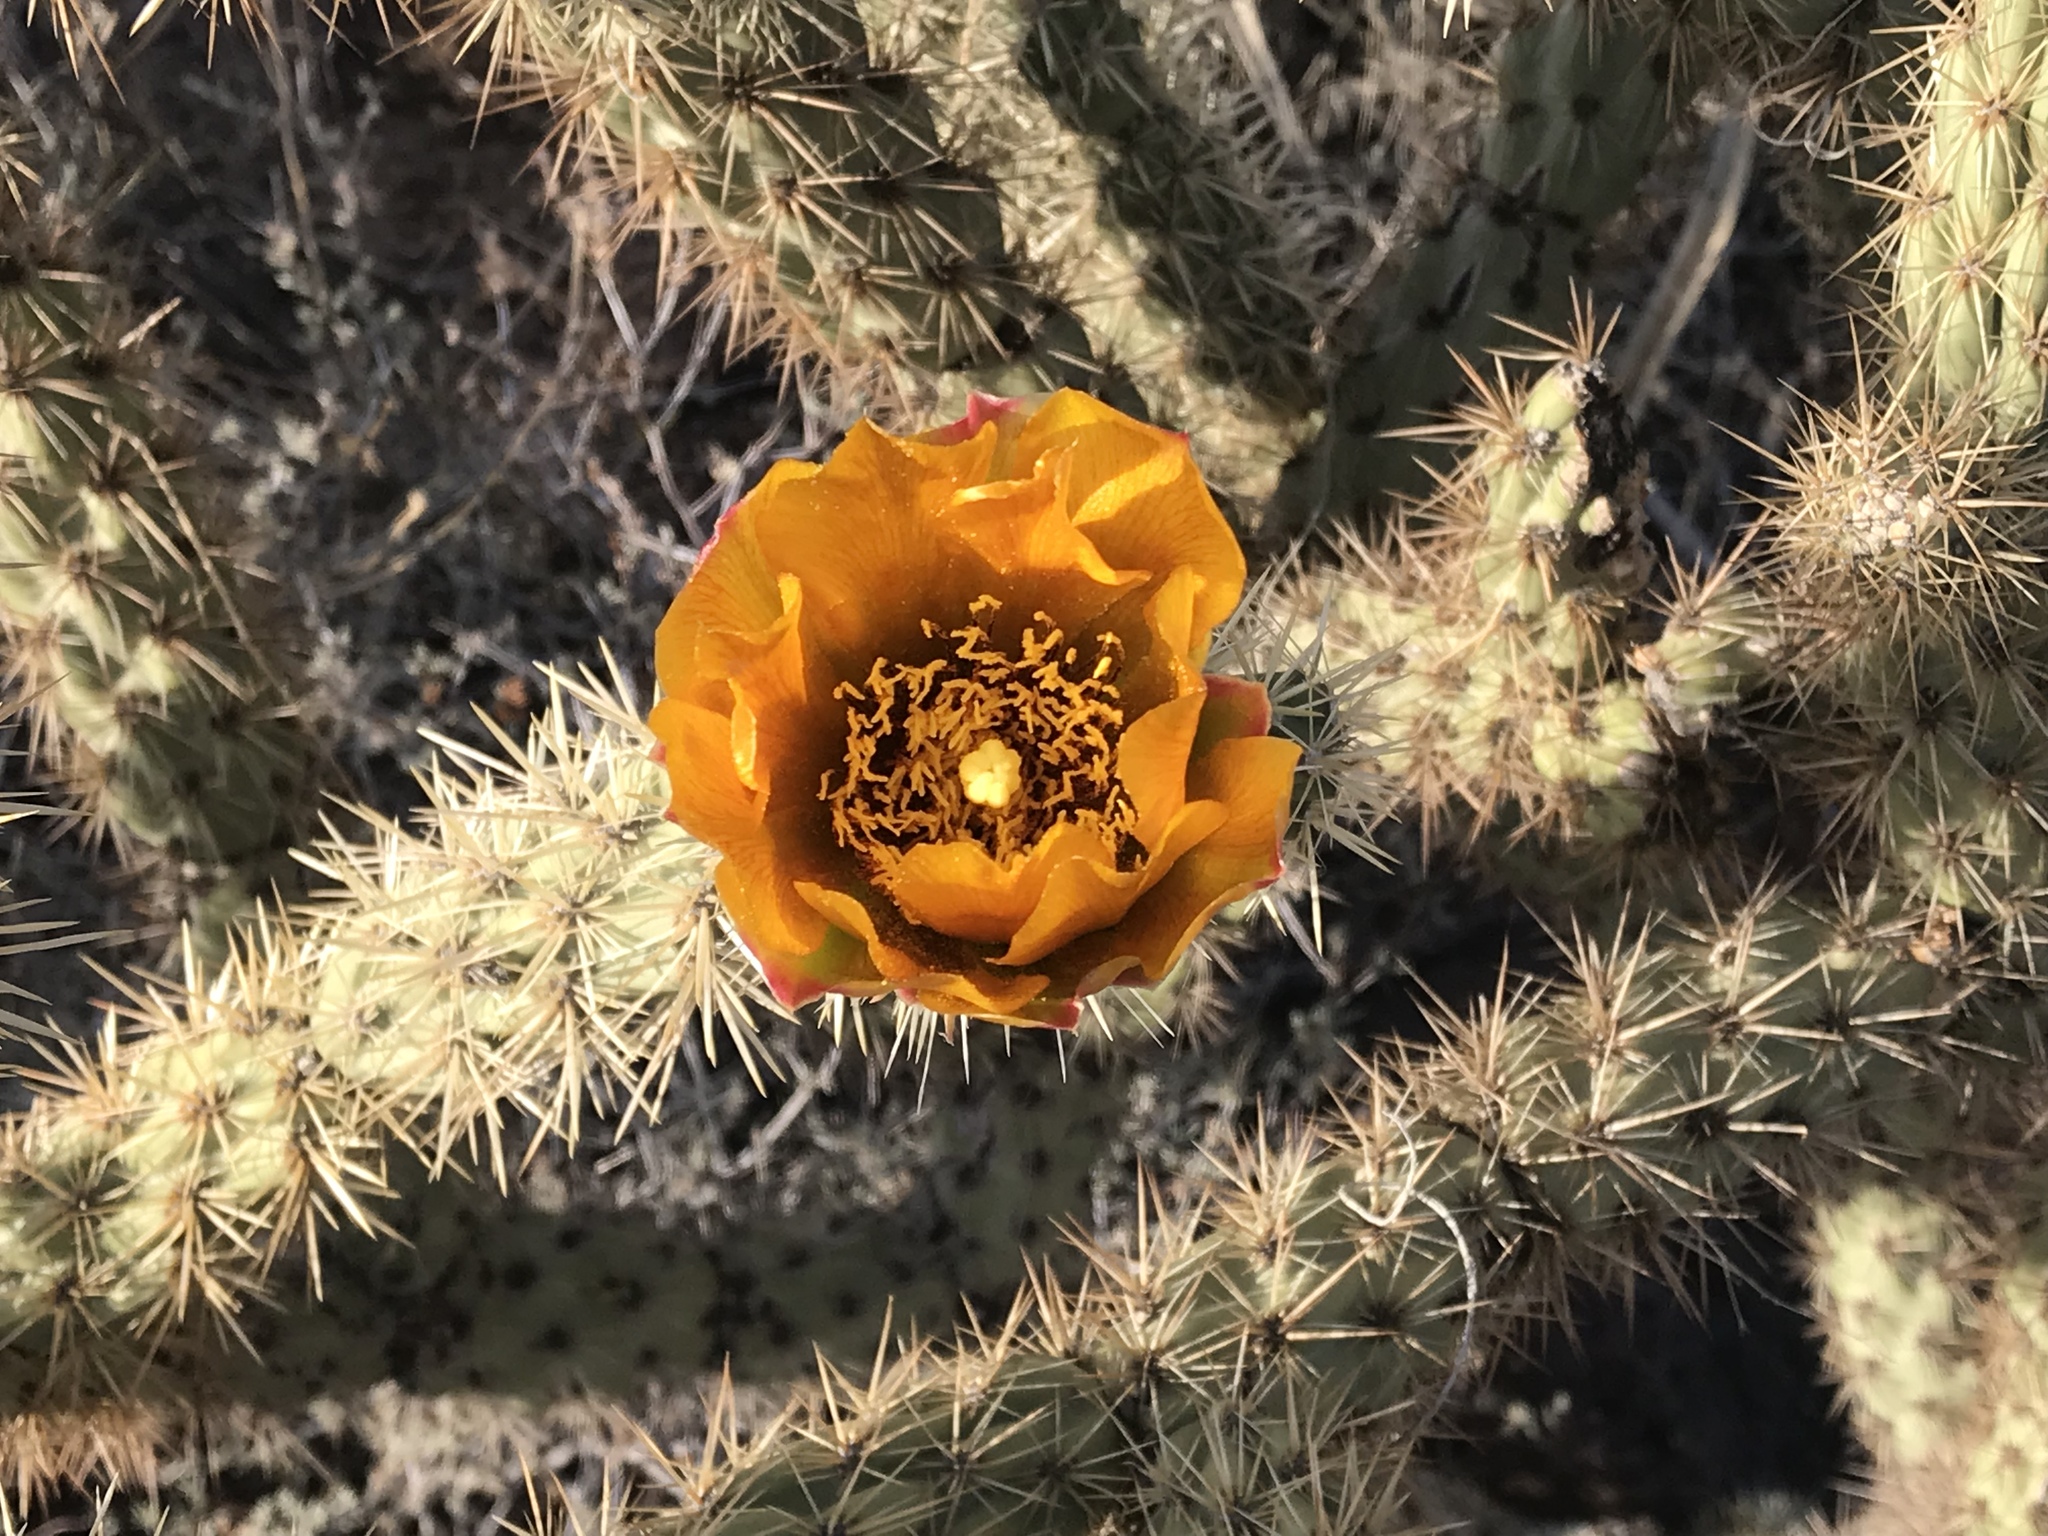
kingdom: Plantae
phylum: Tracheophyta
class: Magnoliopsida
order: Caryophyllales
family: Cactaceae
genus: Cylindropuntia
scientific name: Cylindropuntia acanthocarpa
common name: Buckhorn cholla
